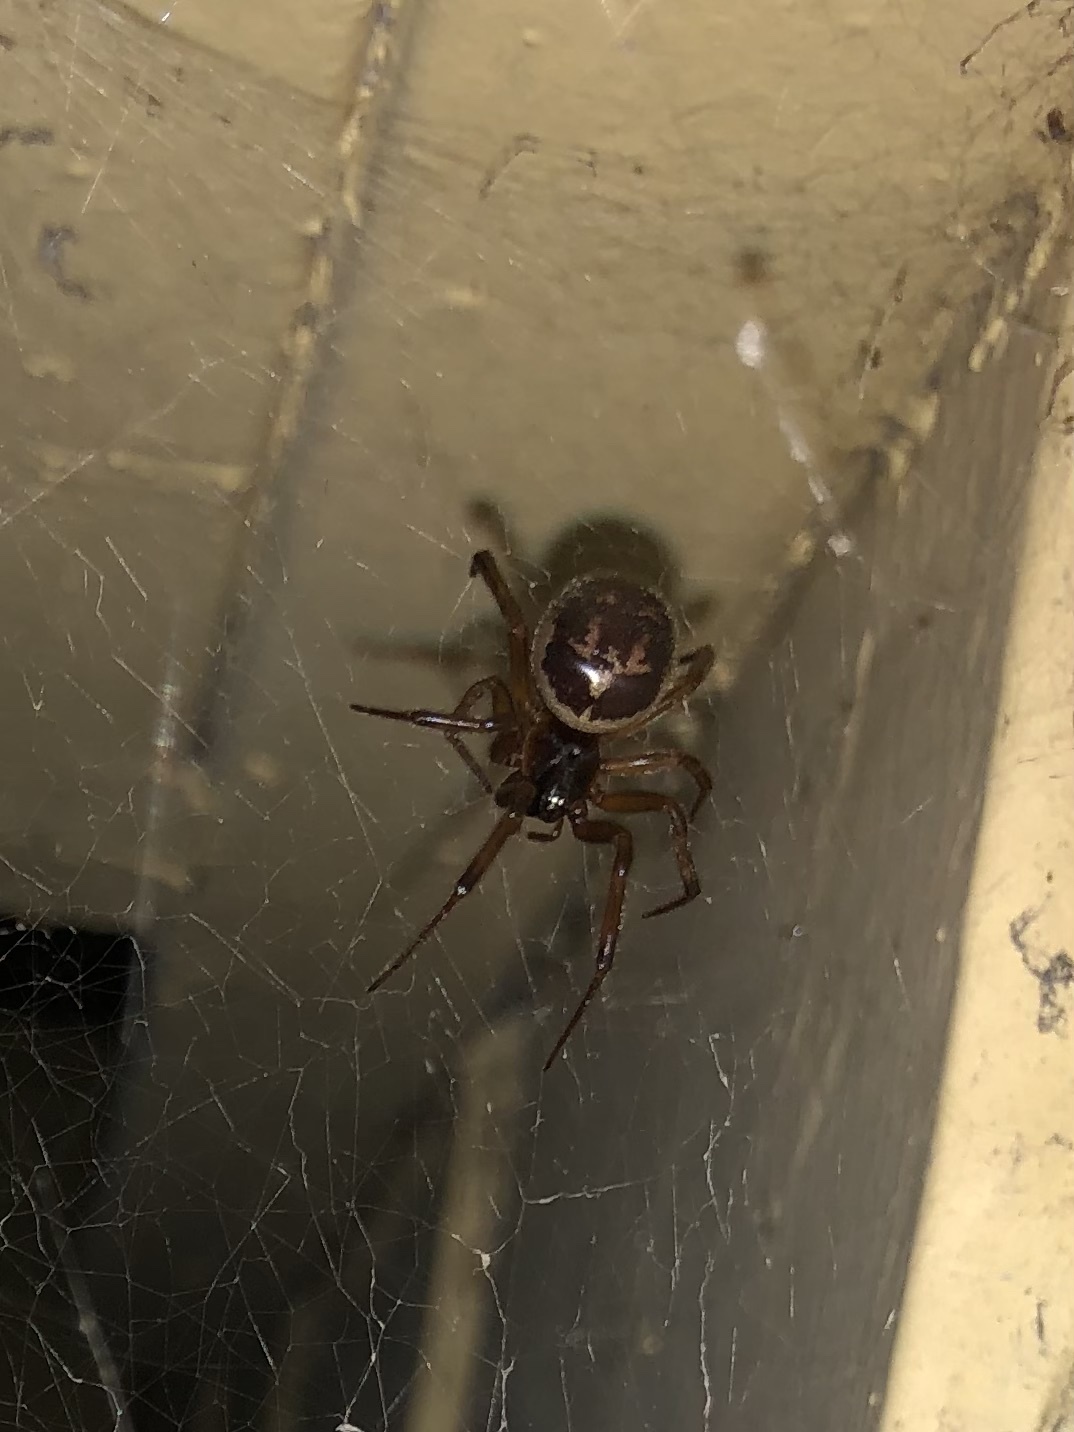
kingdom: Animalia
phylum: Arthropoda
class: Arachnida
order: Araneae
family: Theridiidae
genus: Steatoda
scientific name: Steatoda nobilis
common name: Cobweb weaver
